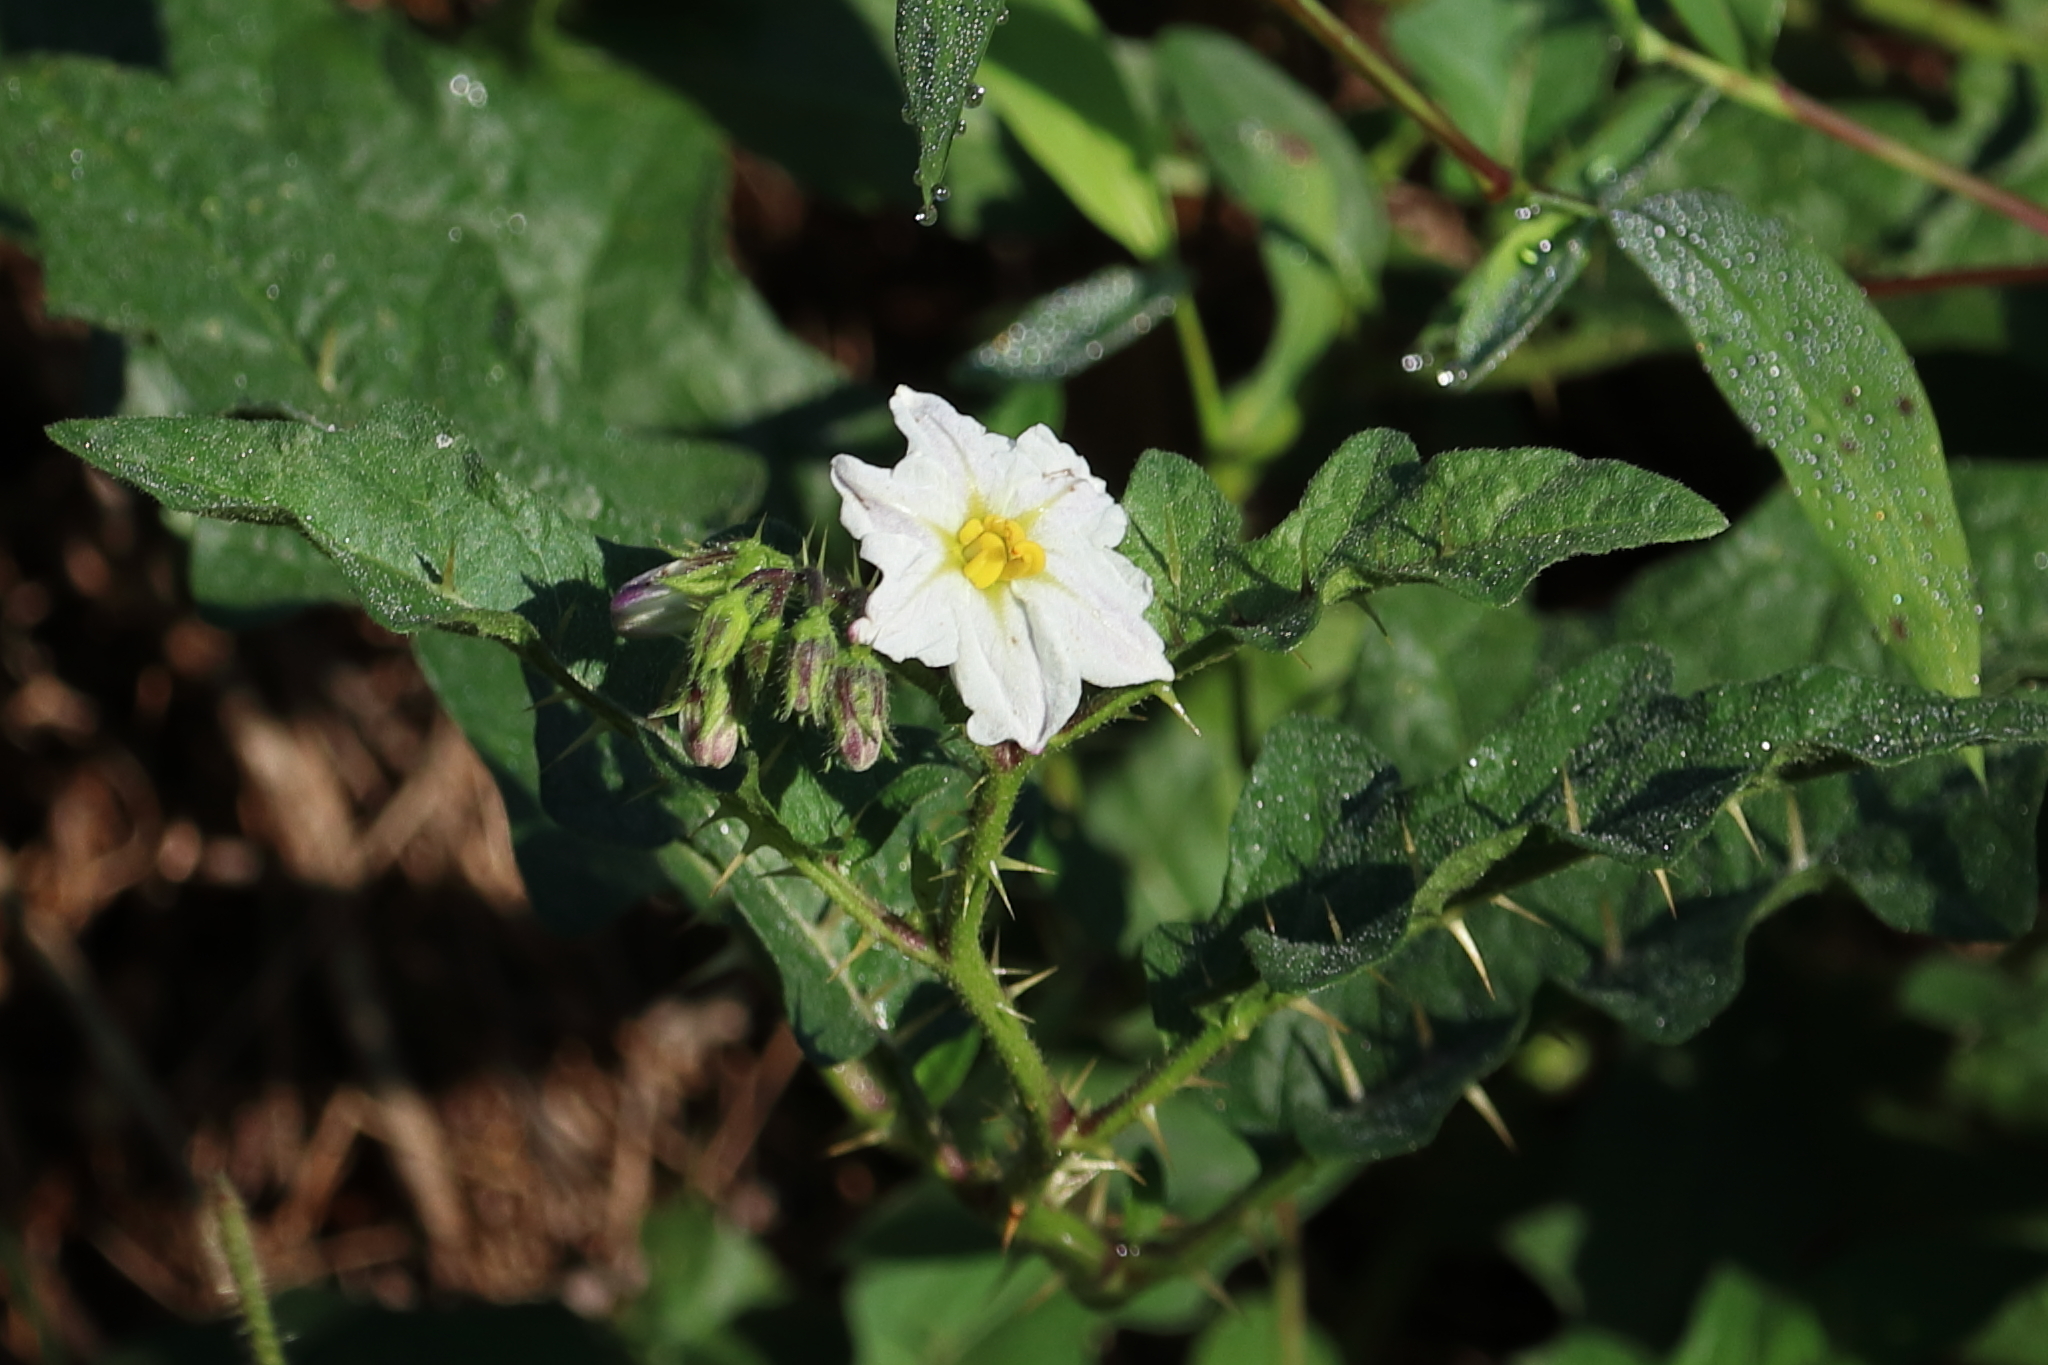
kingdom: Plantae
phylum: Tracheophyta
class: Magnoliopsida
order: Solanales
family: Solanaceae
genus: Solanum
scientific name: Solanum carolinense
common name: Horse-nettle
